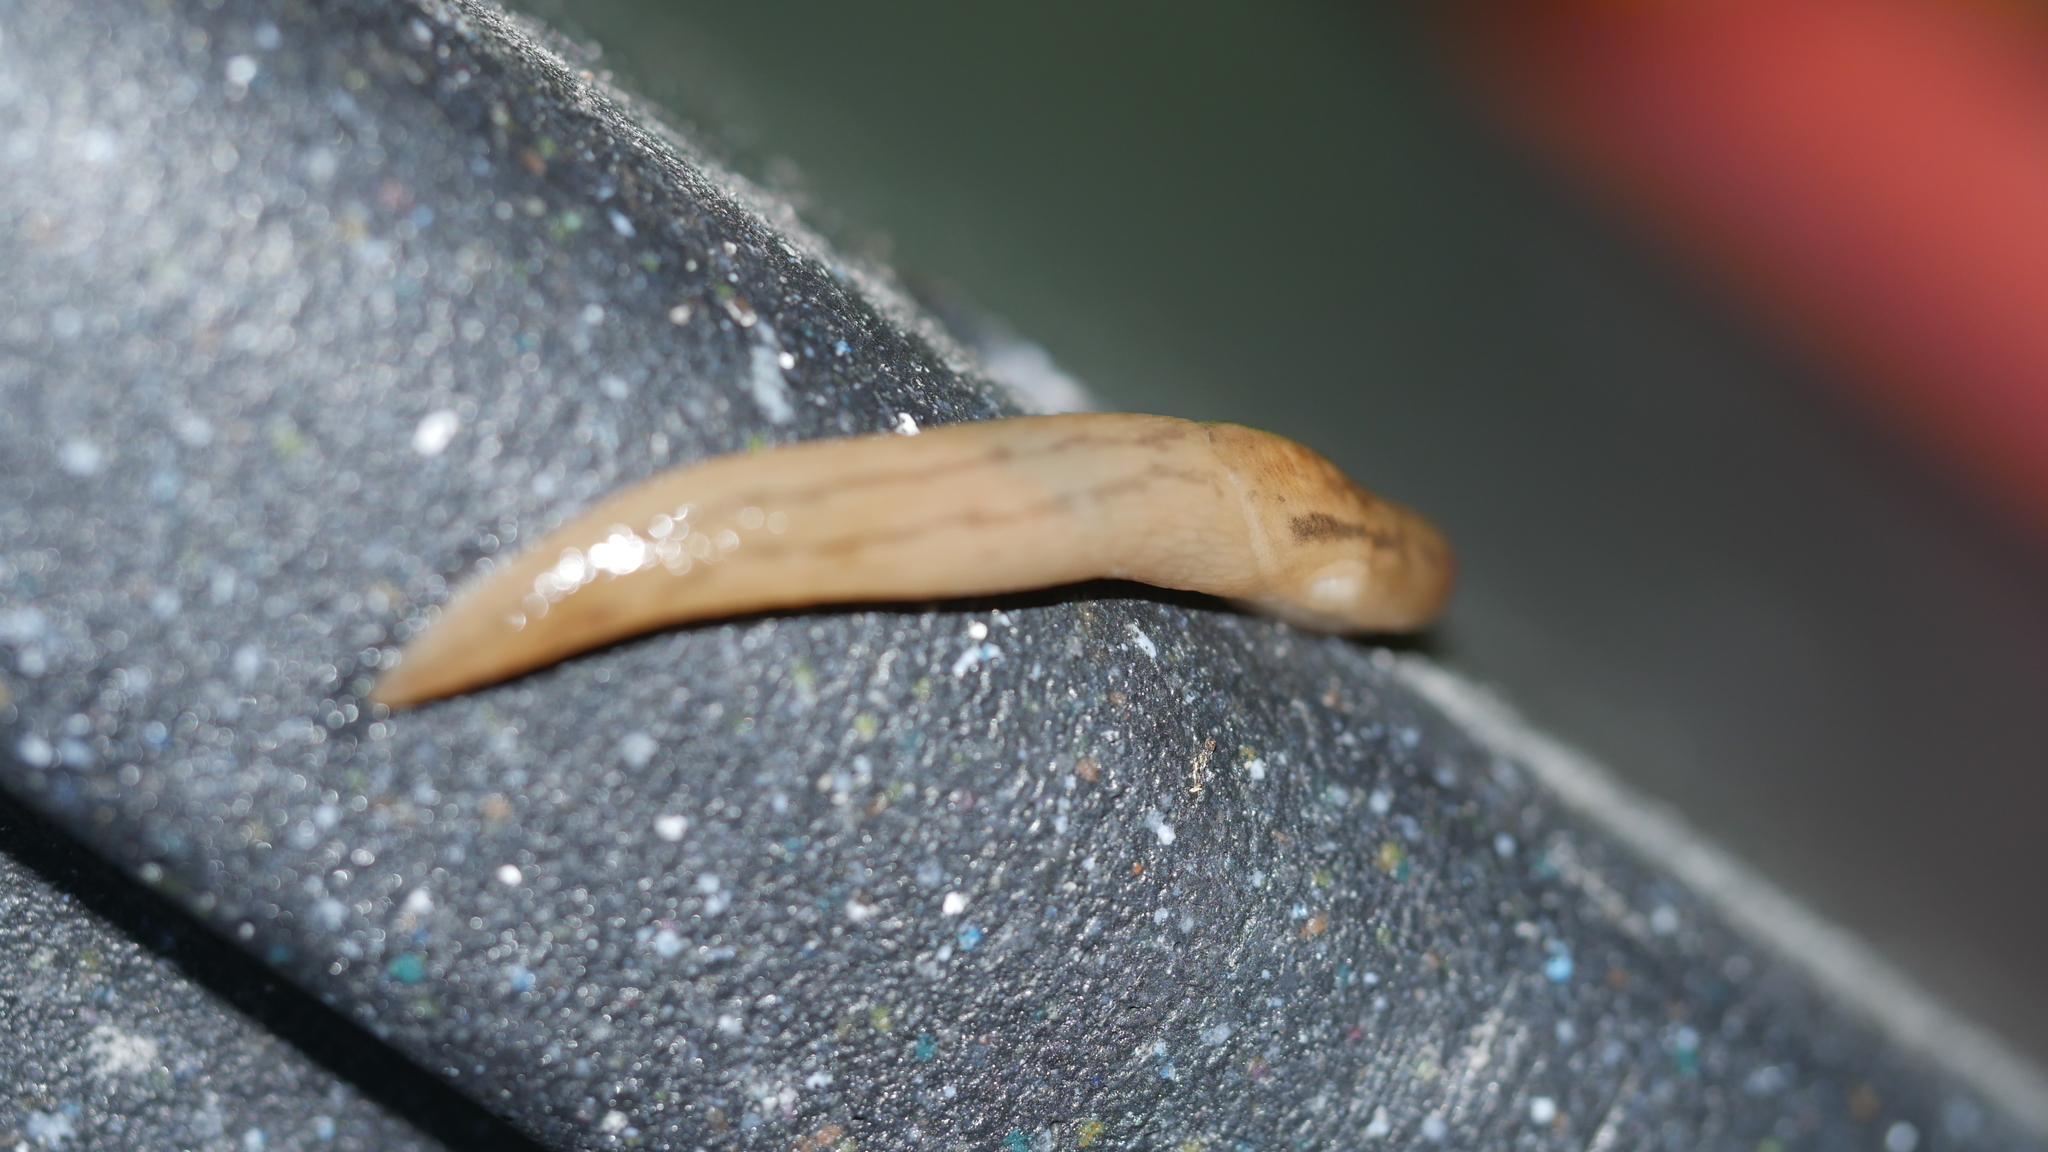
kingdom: Animalia
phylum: Mollusca
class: Gastropoda
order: Stylommatophora
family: Limacidae
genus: Ambigolimax
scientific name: Ambigolimax
